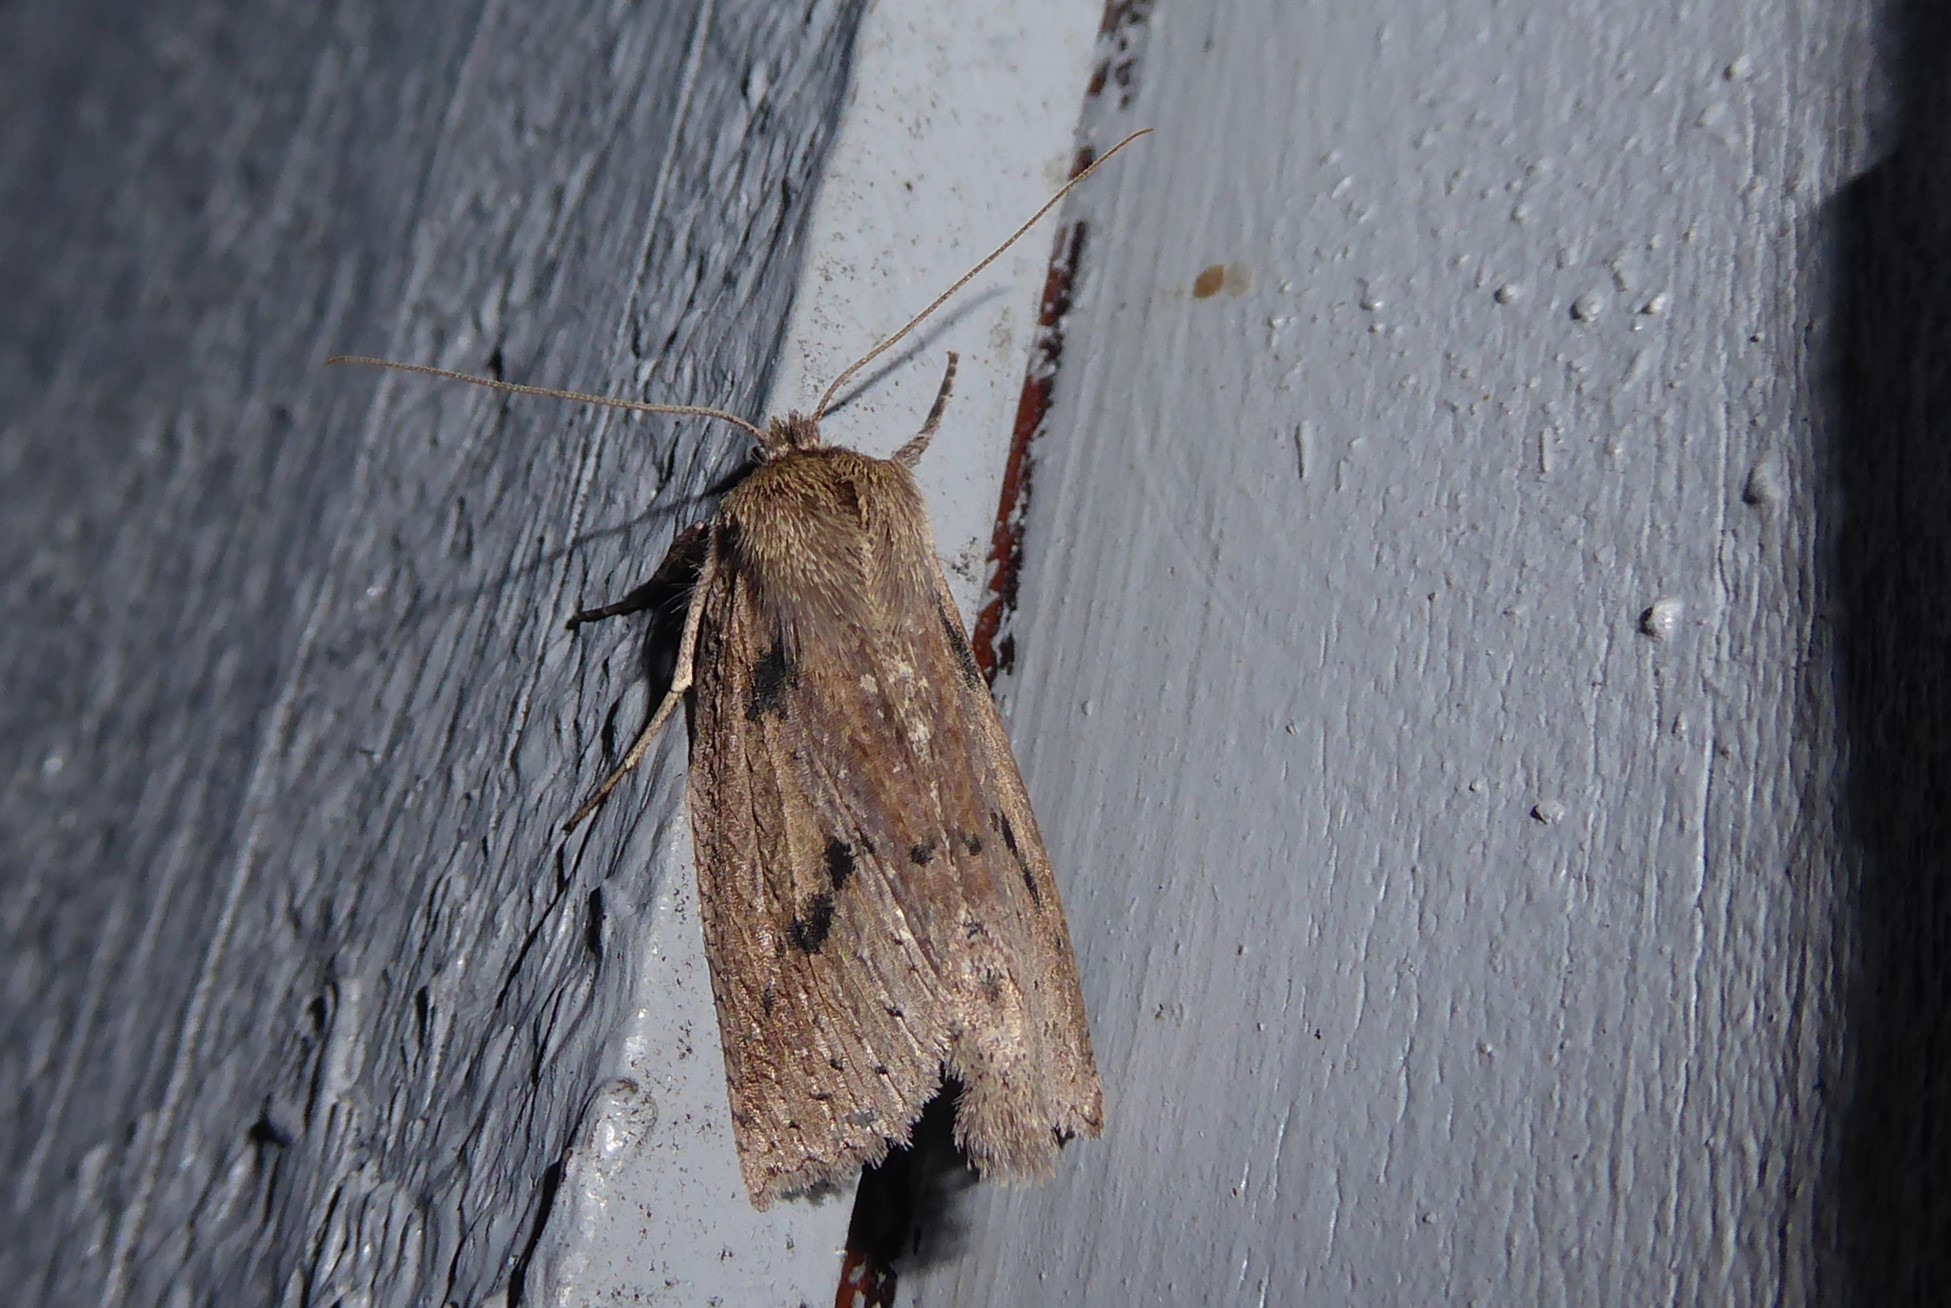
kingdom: Animalia
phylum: Arthropoda
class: Insecta
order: Lepidoptera
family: Geometridae
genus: Declana
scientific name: Declana leptomera
